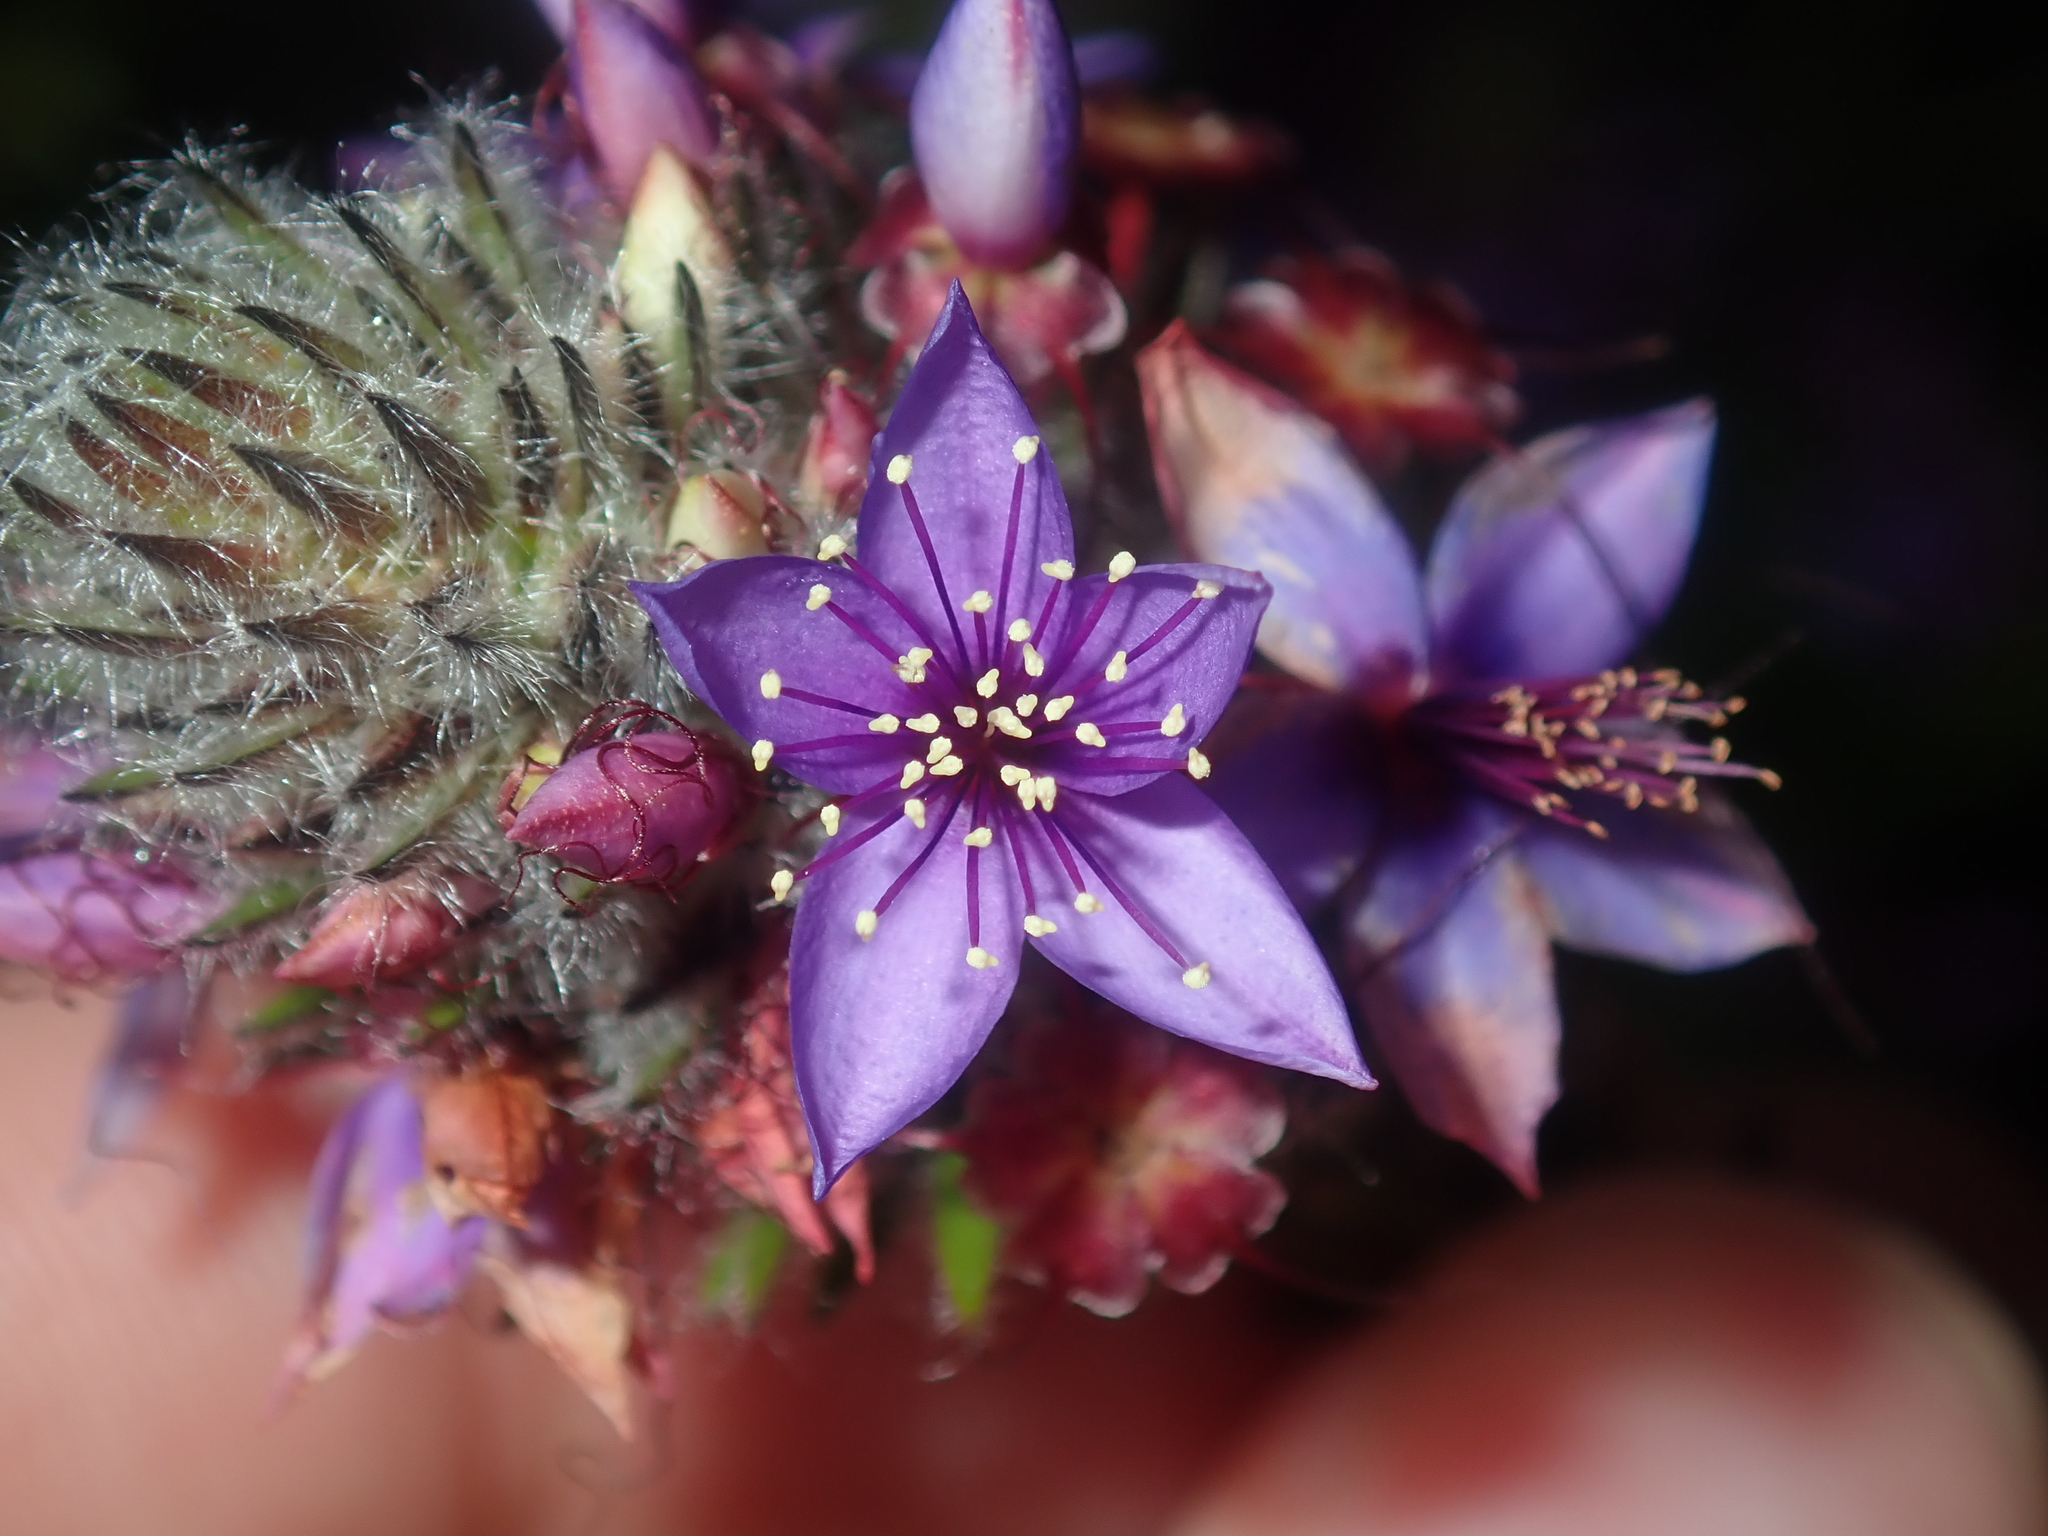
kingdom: Plantae
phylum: Tracheophyta
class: Magnoliopsida
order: Myrtales
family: Myrtaceae
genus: Calytrix
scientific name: Calytrix sapphirina
